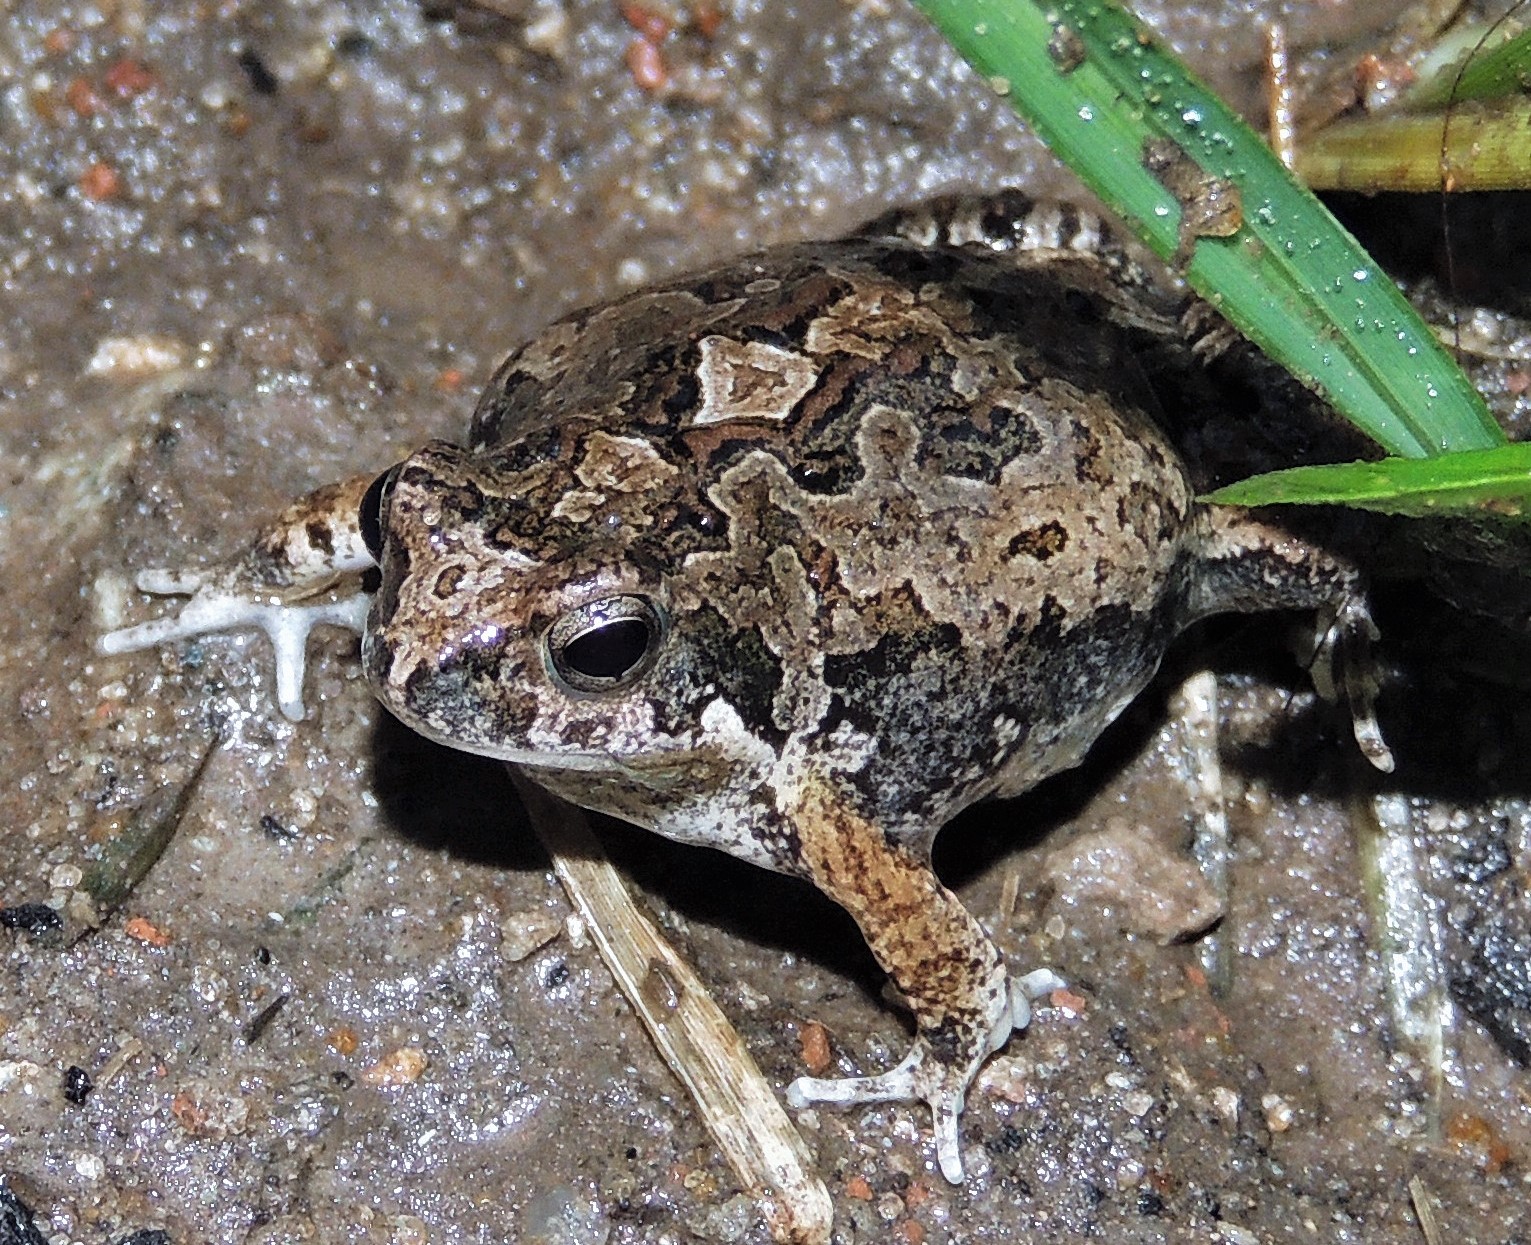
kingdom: Animalia
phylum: Chordata
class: Amphibia
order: Anura
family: Leptodactylidae
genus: Physalaemus
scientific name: Physalaemus biligonigerus
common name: Weeping frog
